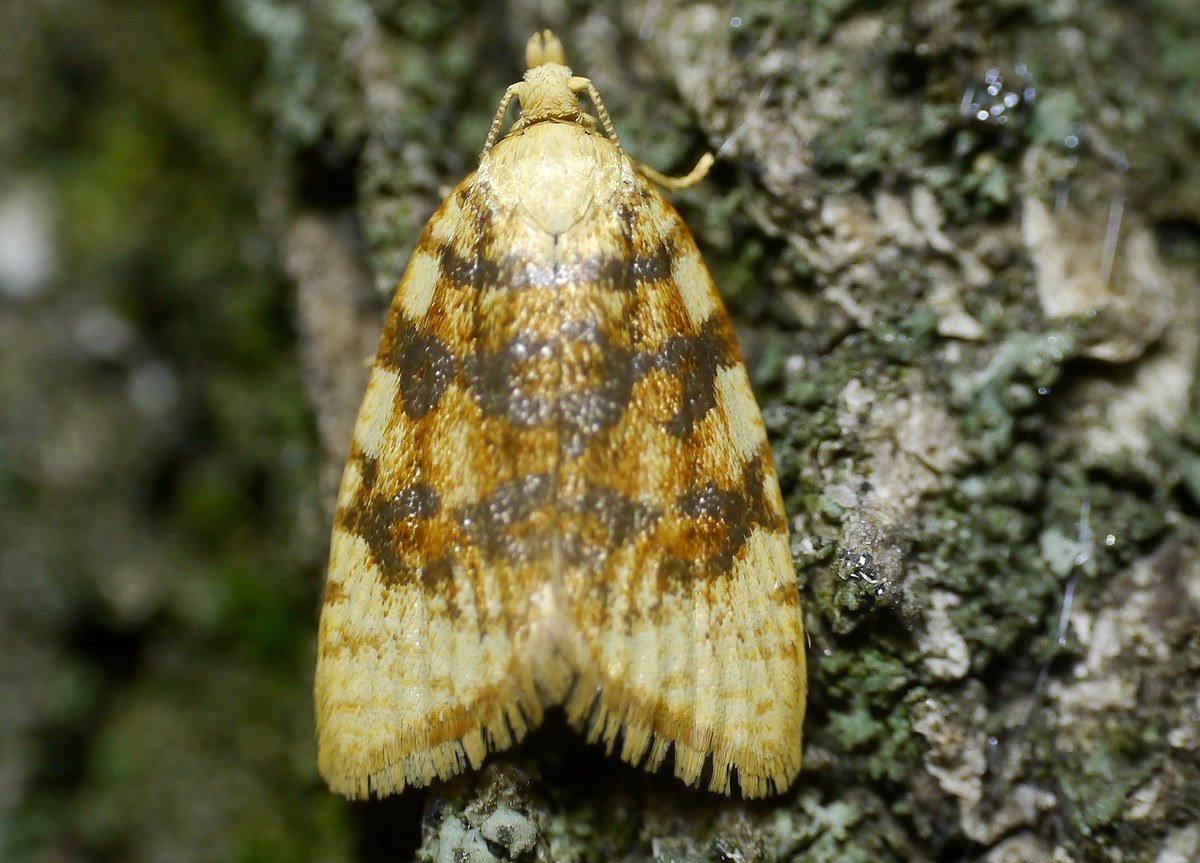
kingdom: Animalia
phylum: Arthropoda
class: Insecta
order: Lepidoptera
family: Tortricidae
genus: Aleimma
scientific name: Aleimma loeflingiana
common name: Yellow oak button
